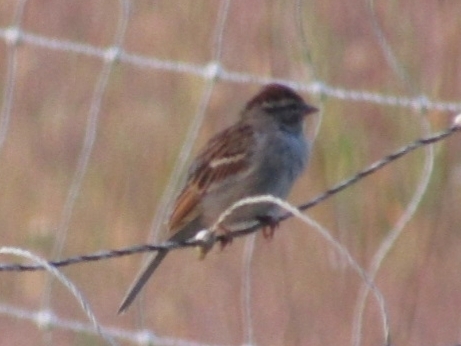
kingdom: Animalia
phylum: Chordata
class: Aves
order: Passeriformes
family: Passerellidae
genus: Spizella
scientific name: Spizella passerina
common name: Chipping sparrow
